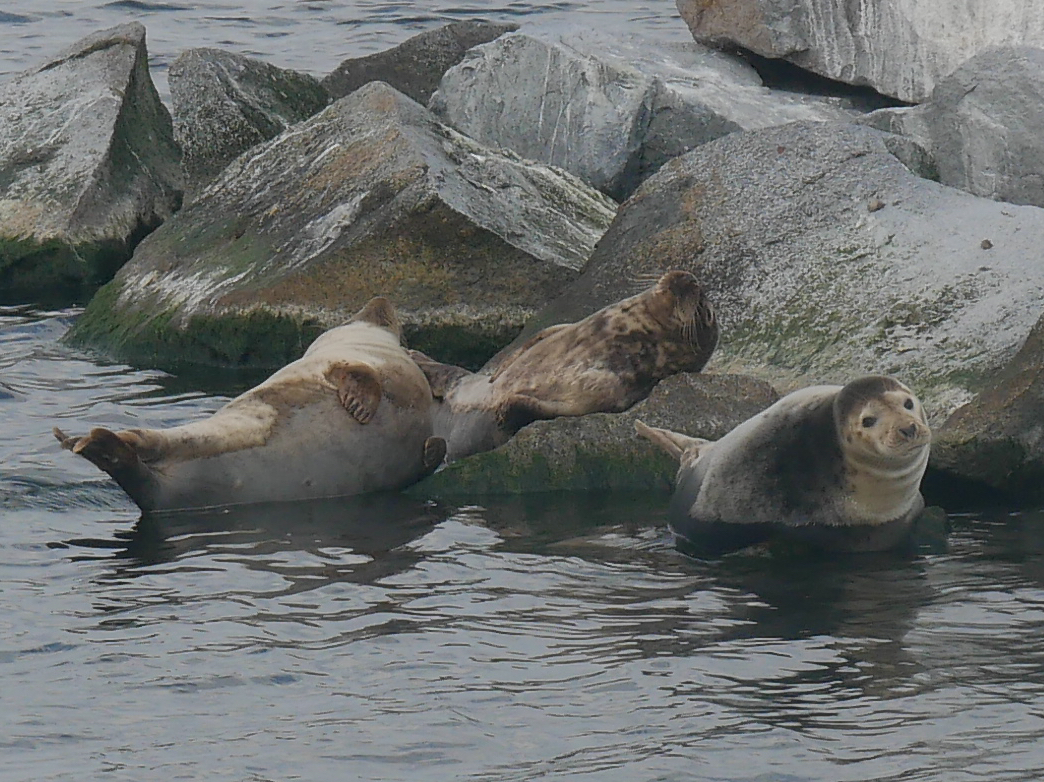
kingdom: Animalia
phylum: Chordata
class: Mammalia
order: Carnivora
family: Phocidae
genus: Halichoerus
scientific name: Halichoerus grypus
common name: Grey seal
